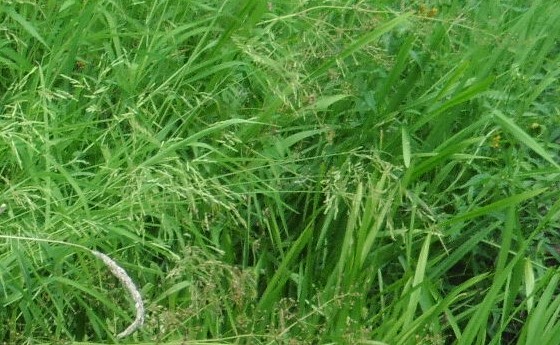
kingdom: Plantae
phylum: Tracheophyta
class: Liliopsida
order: Poales
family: Poaceae
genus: Leersia
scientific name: Leersia oryzoides
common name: Cut-grass
